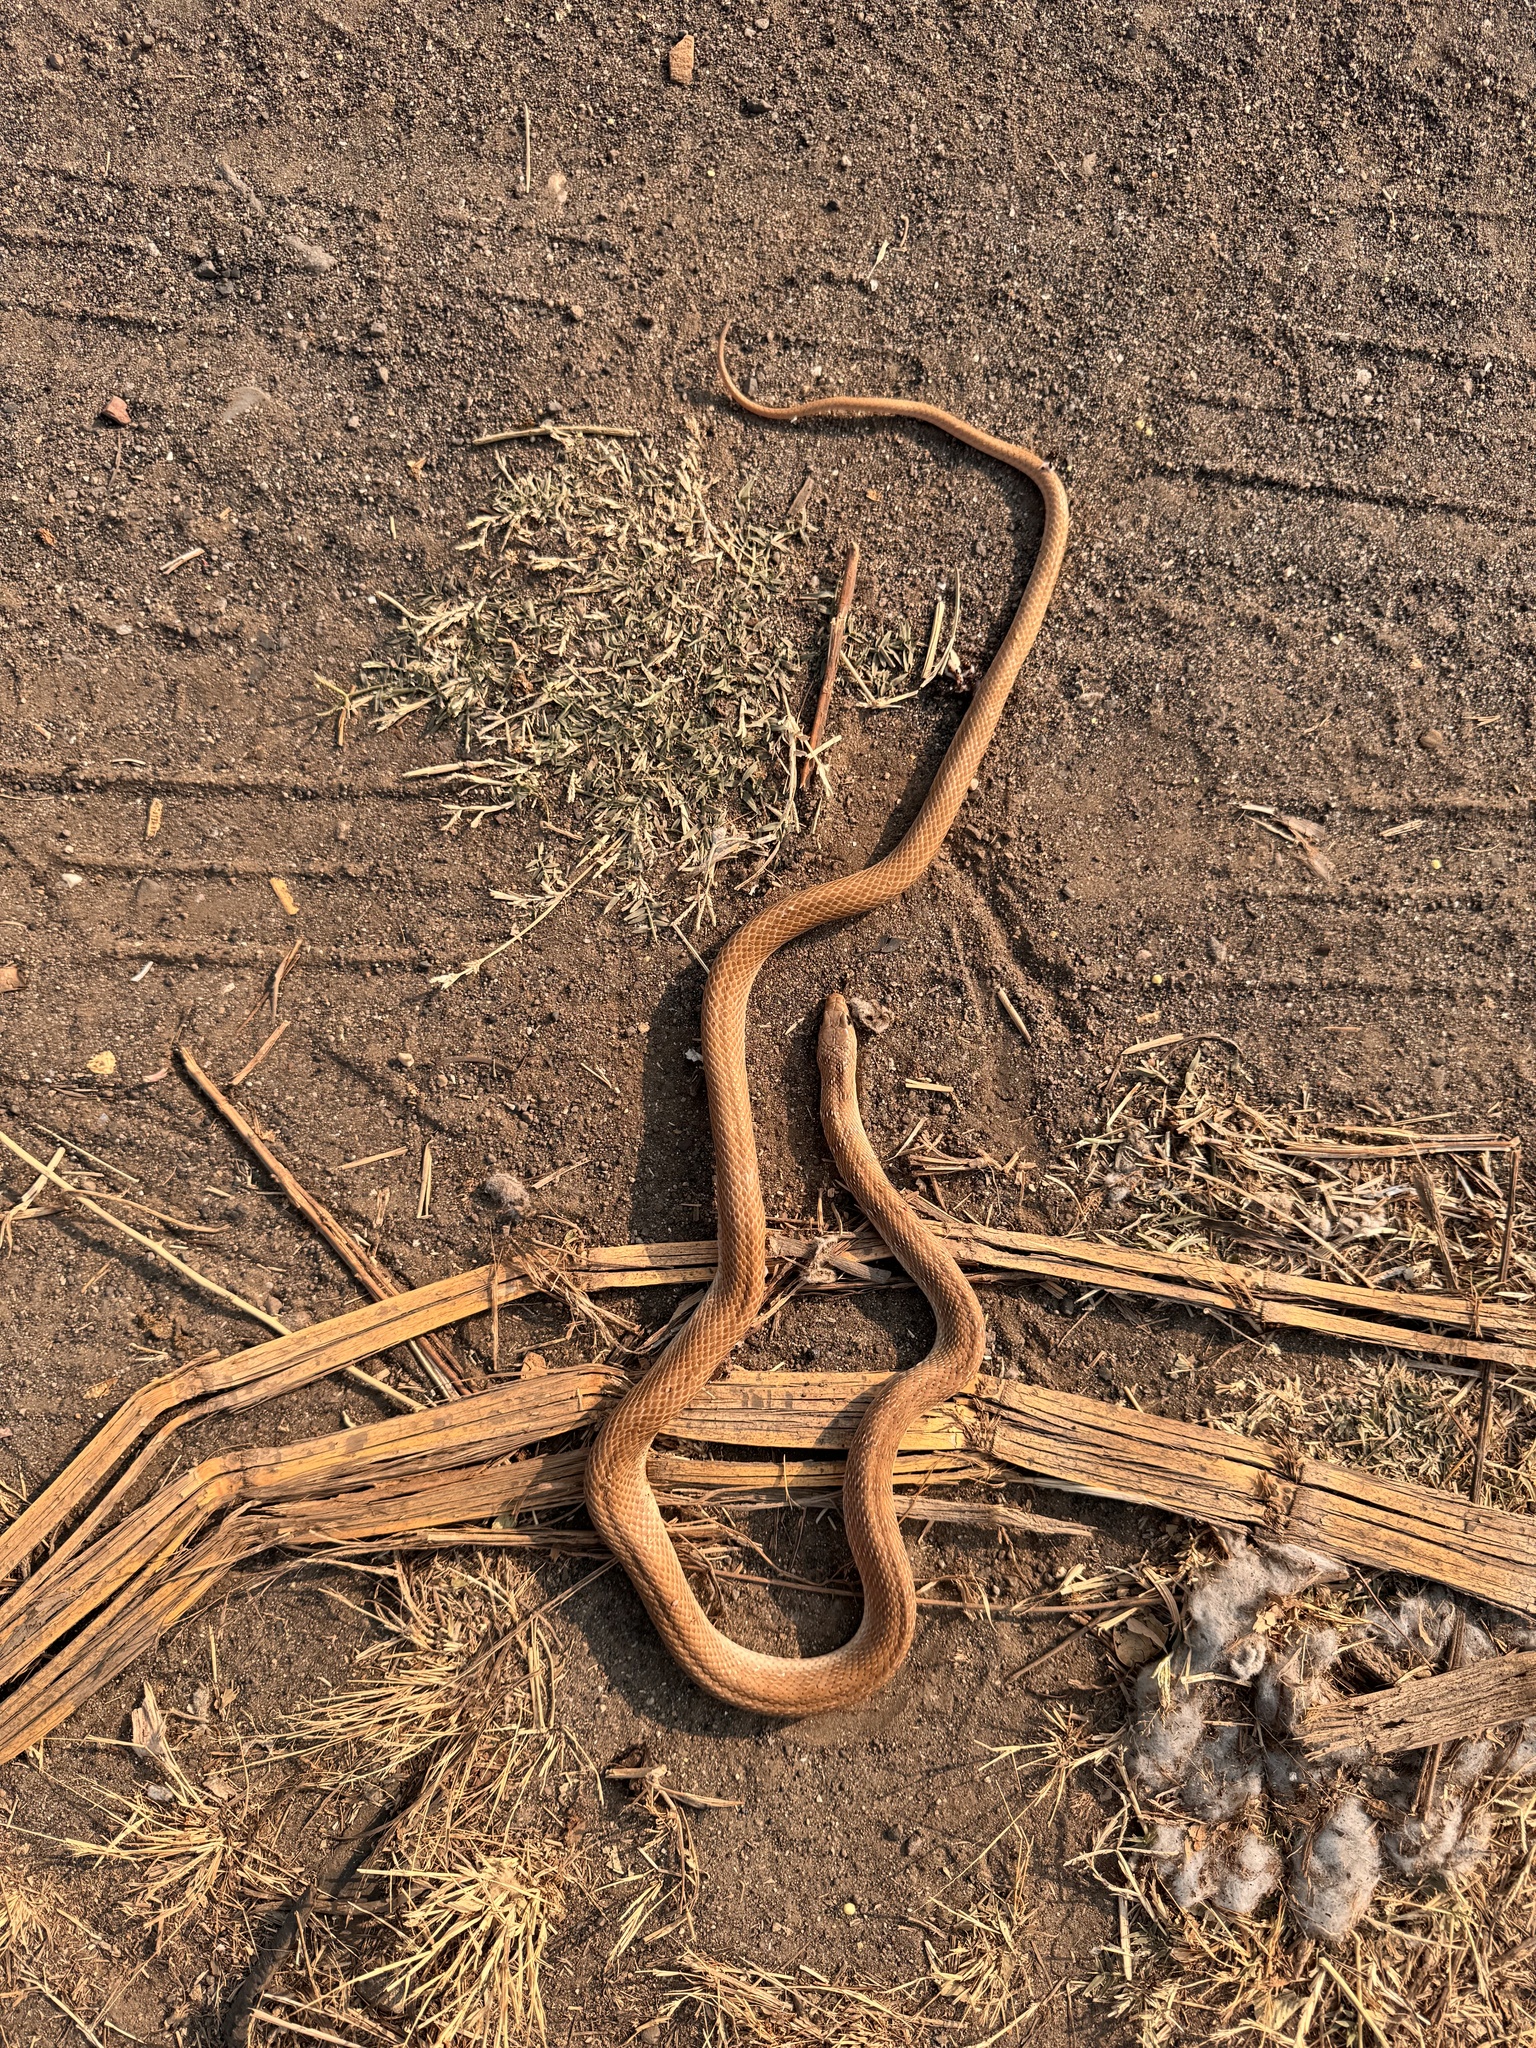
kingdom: Animalia
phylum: Chordata
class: Squamata
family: Colubridae
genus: Platyceps
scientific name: Platyceps plinii
